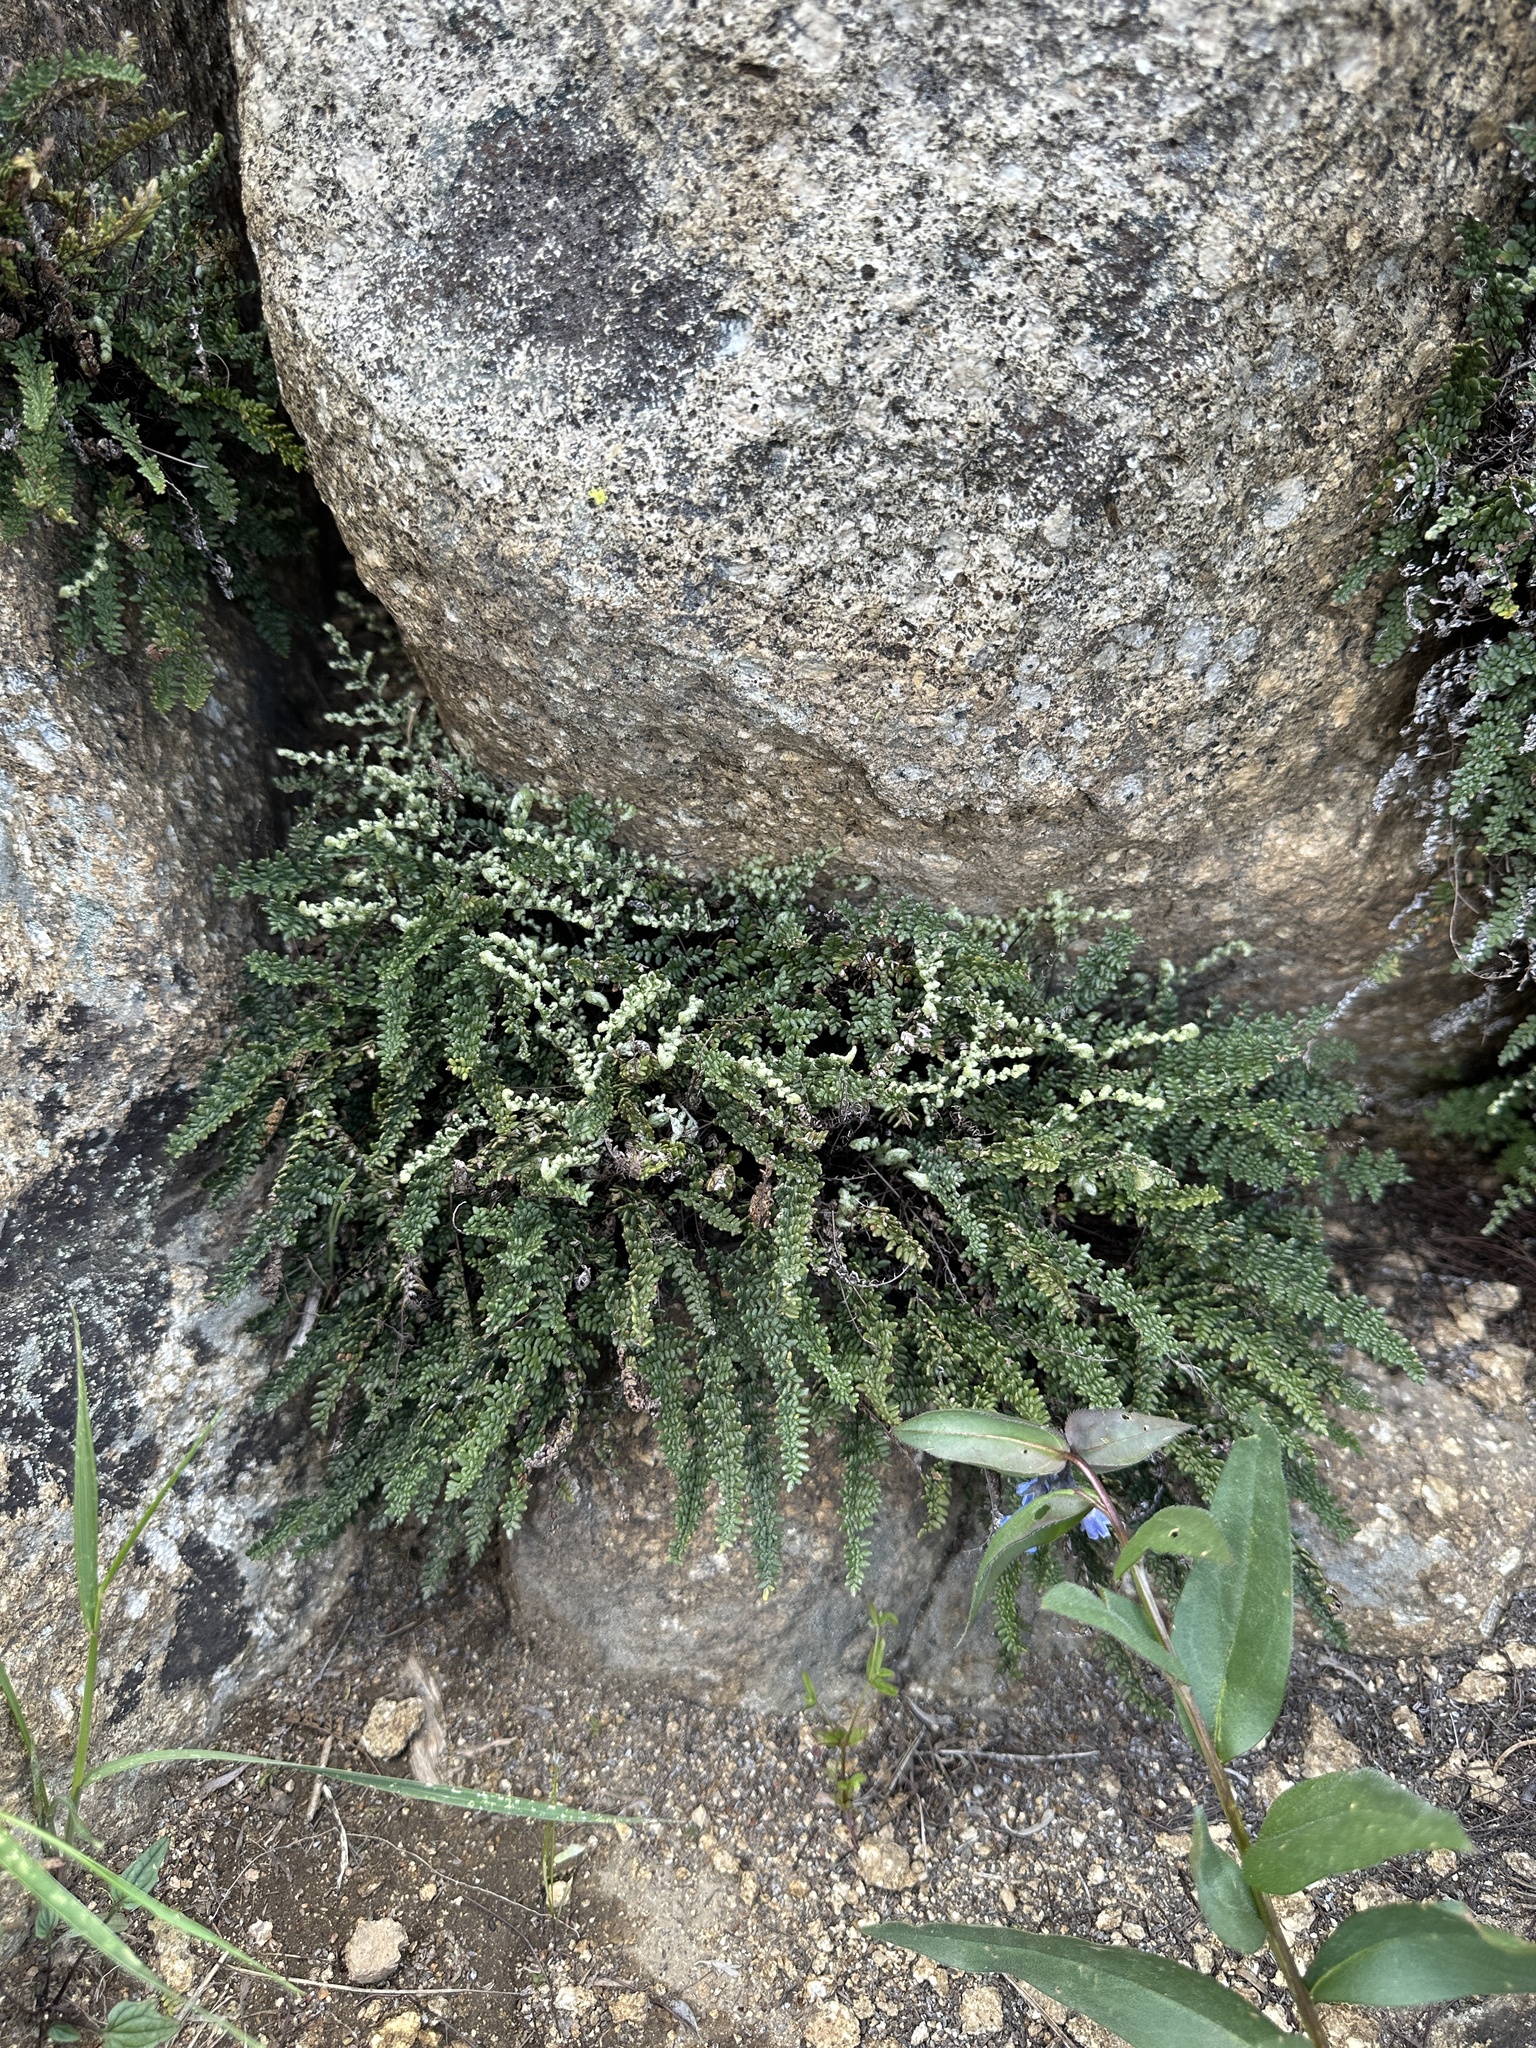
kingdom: Plantae
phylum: Tracheophyta
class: Polypodiopsida
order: Polypodiales
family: Pteridaceae
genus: Myriopteris
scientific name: Myriopteris gracillima
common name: Lace fern
